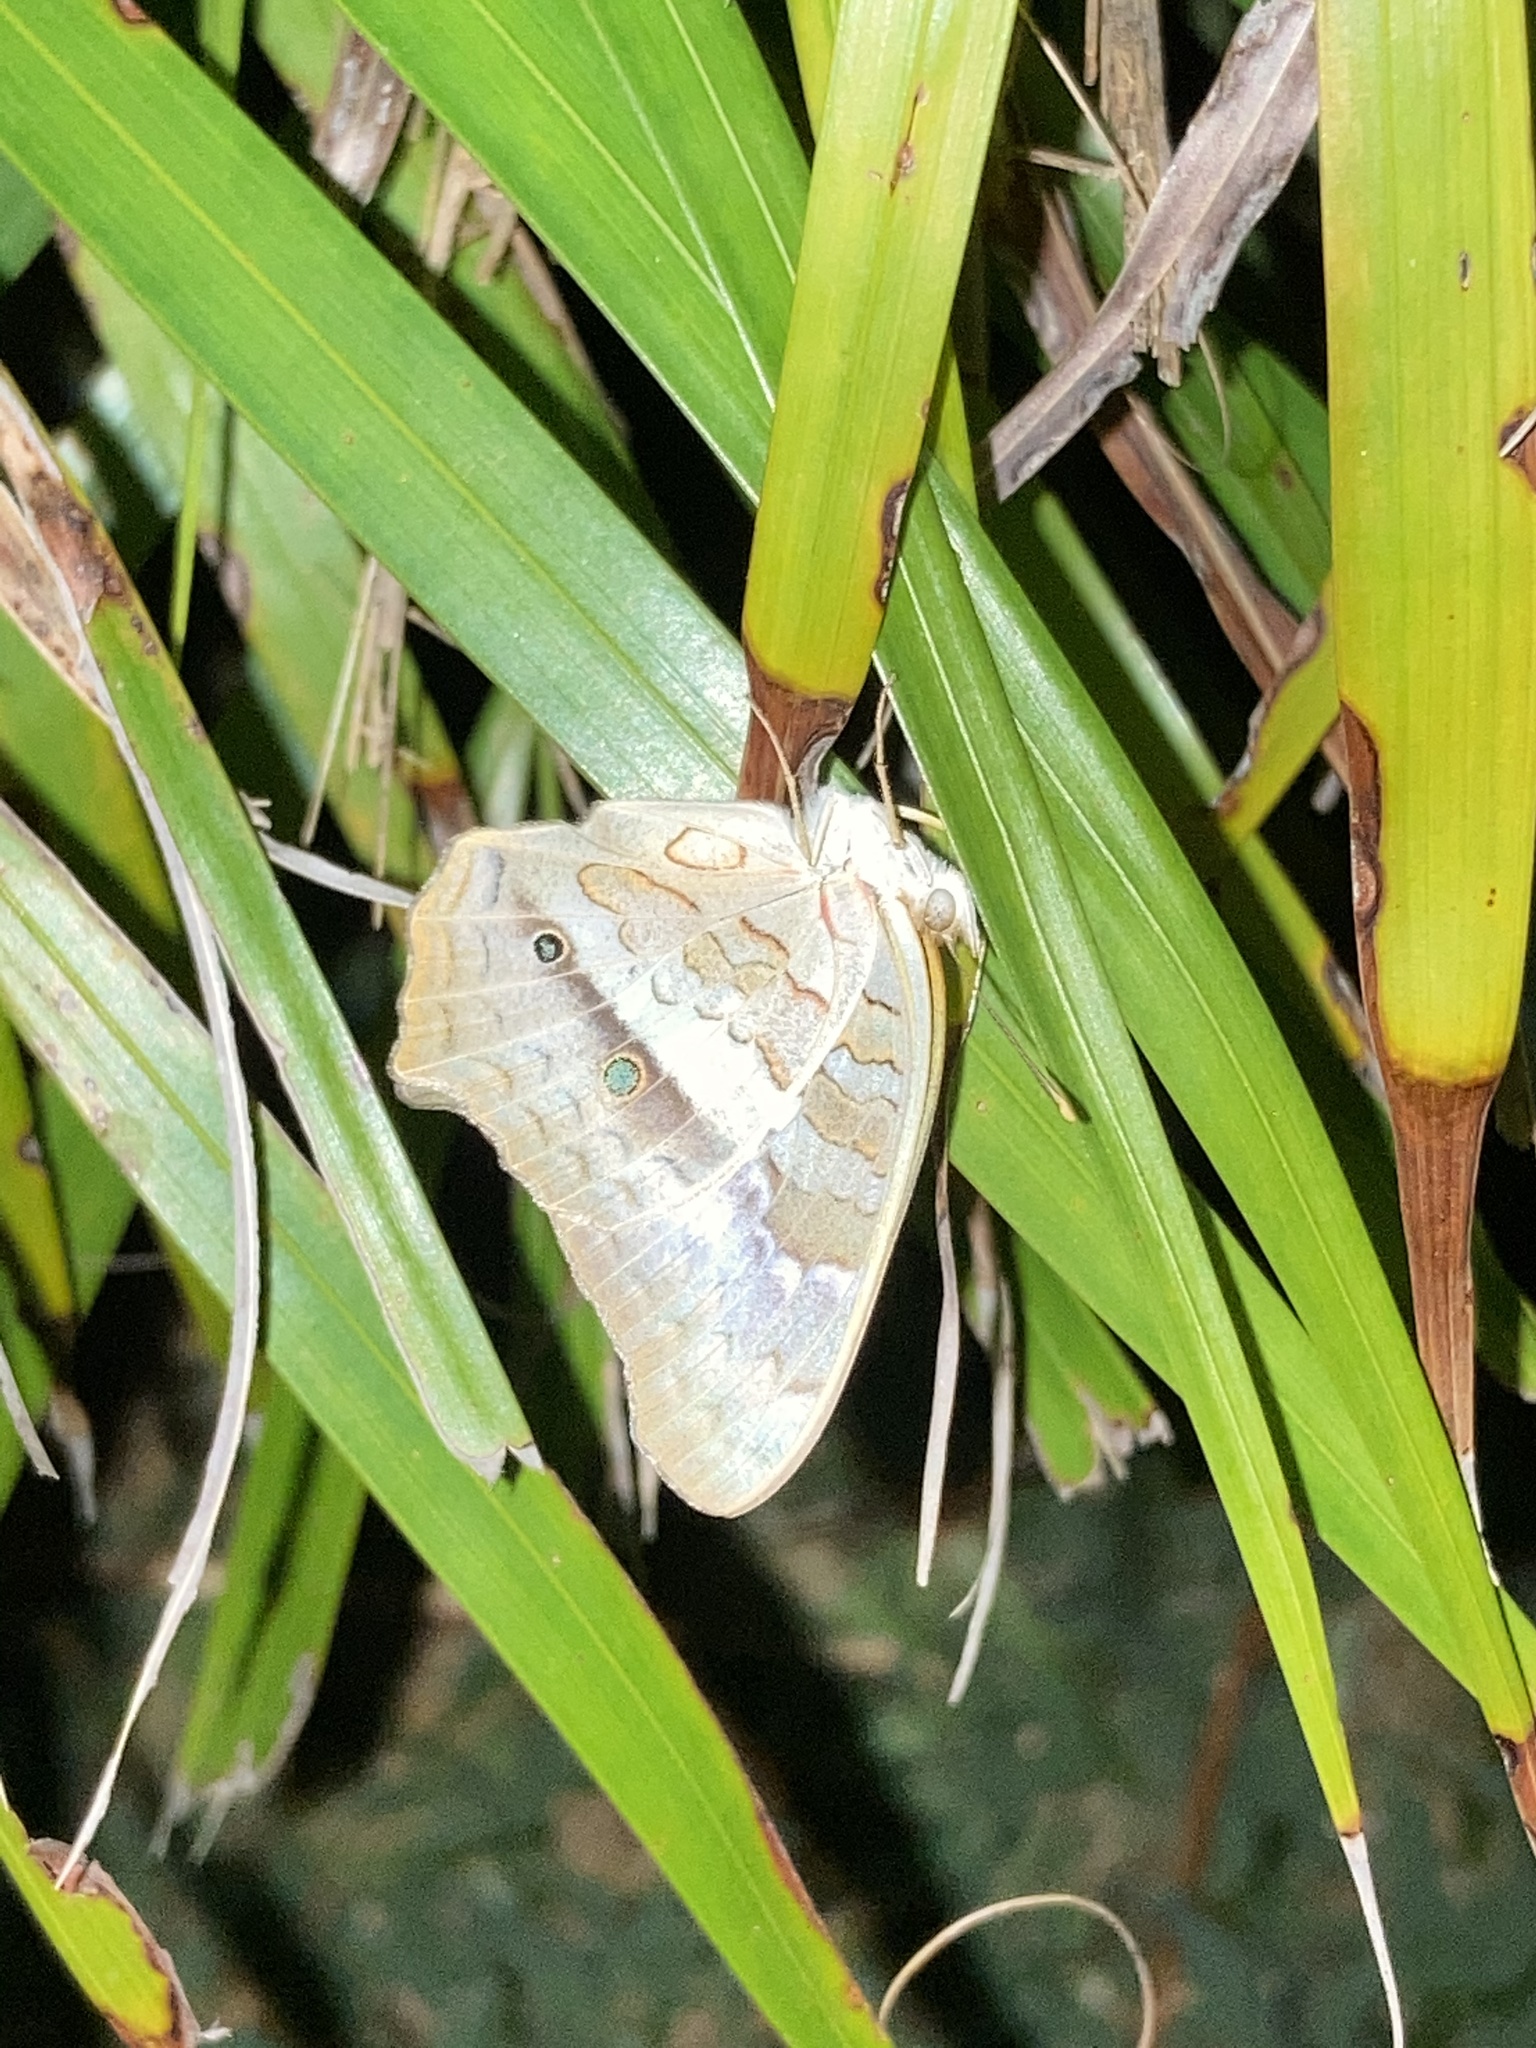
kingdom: Animalia
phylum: Arthropoda
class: Insecta
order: Lepidoptera
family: Nymphalidae
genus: Anartia
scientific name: Anartia jatrophae
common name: White peacock
